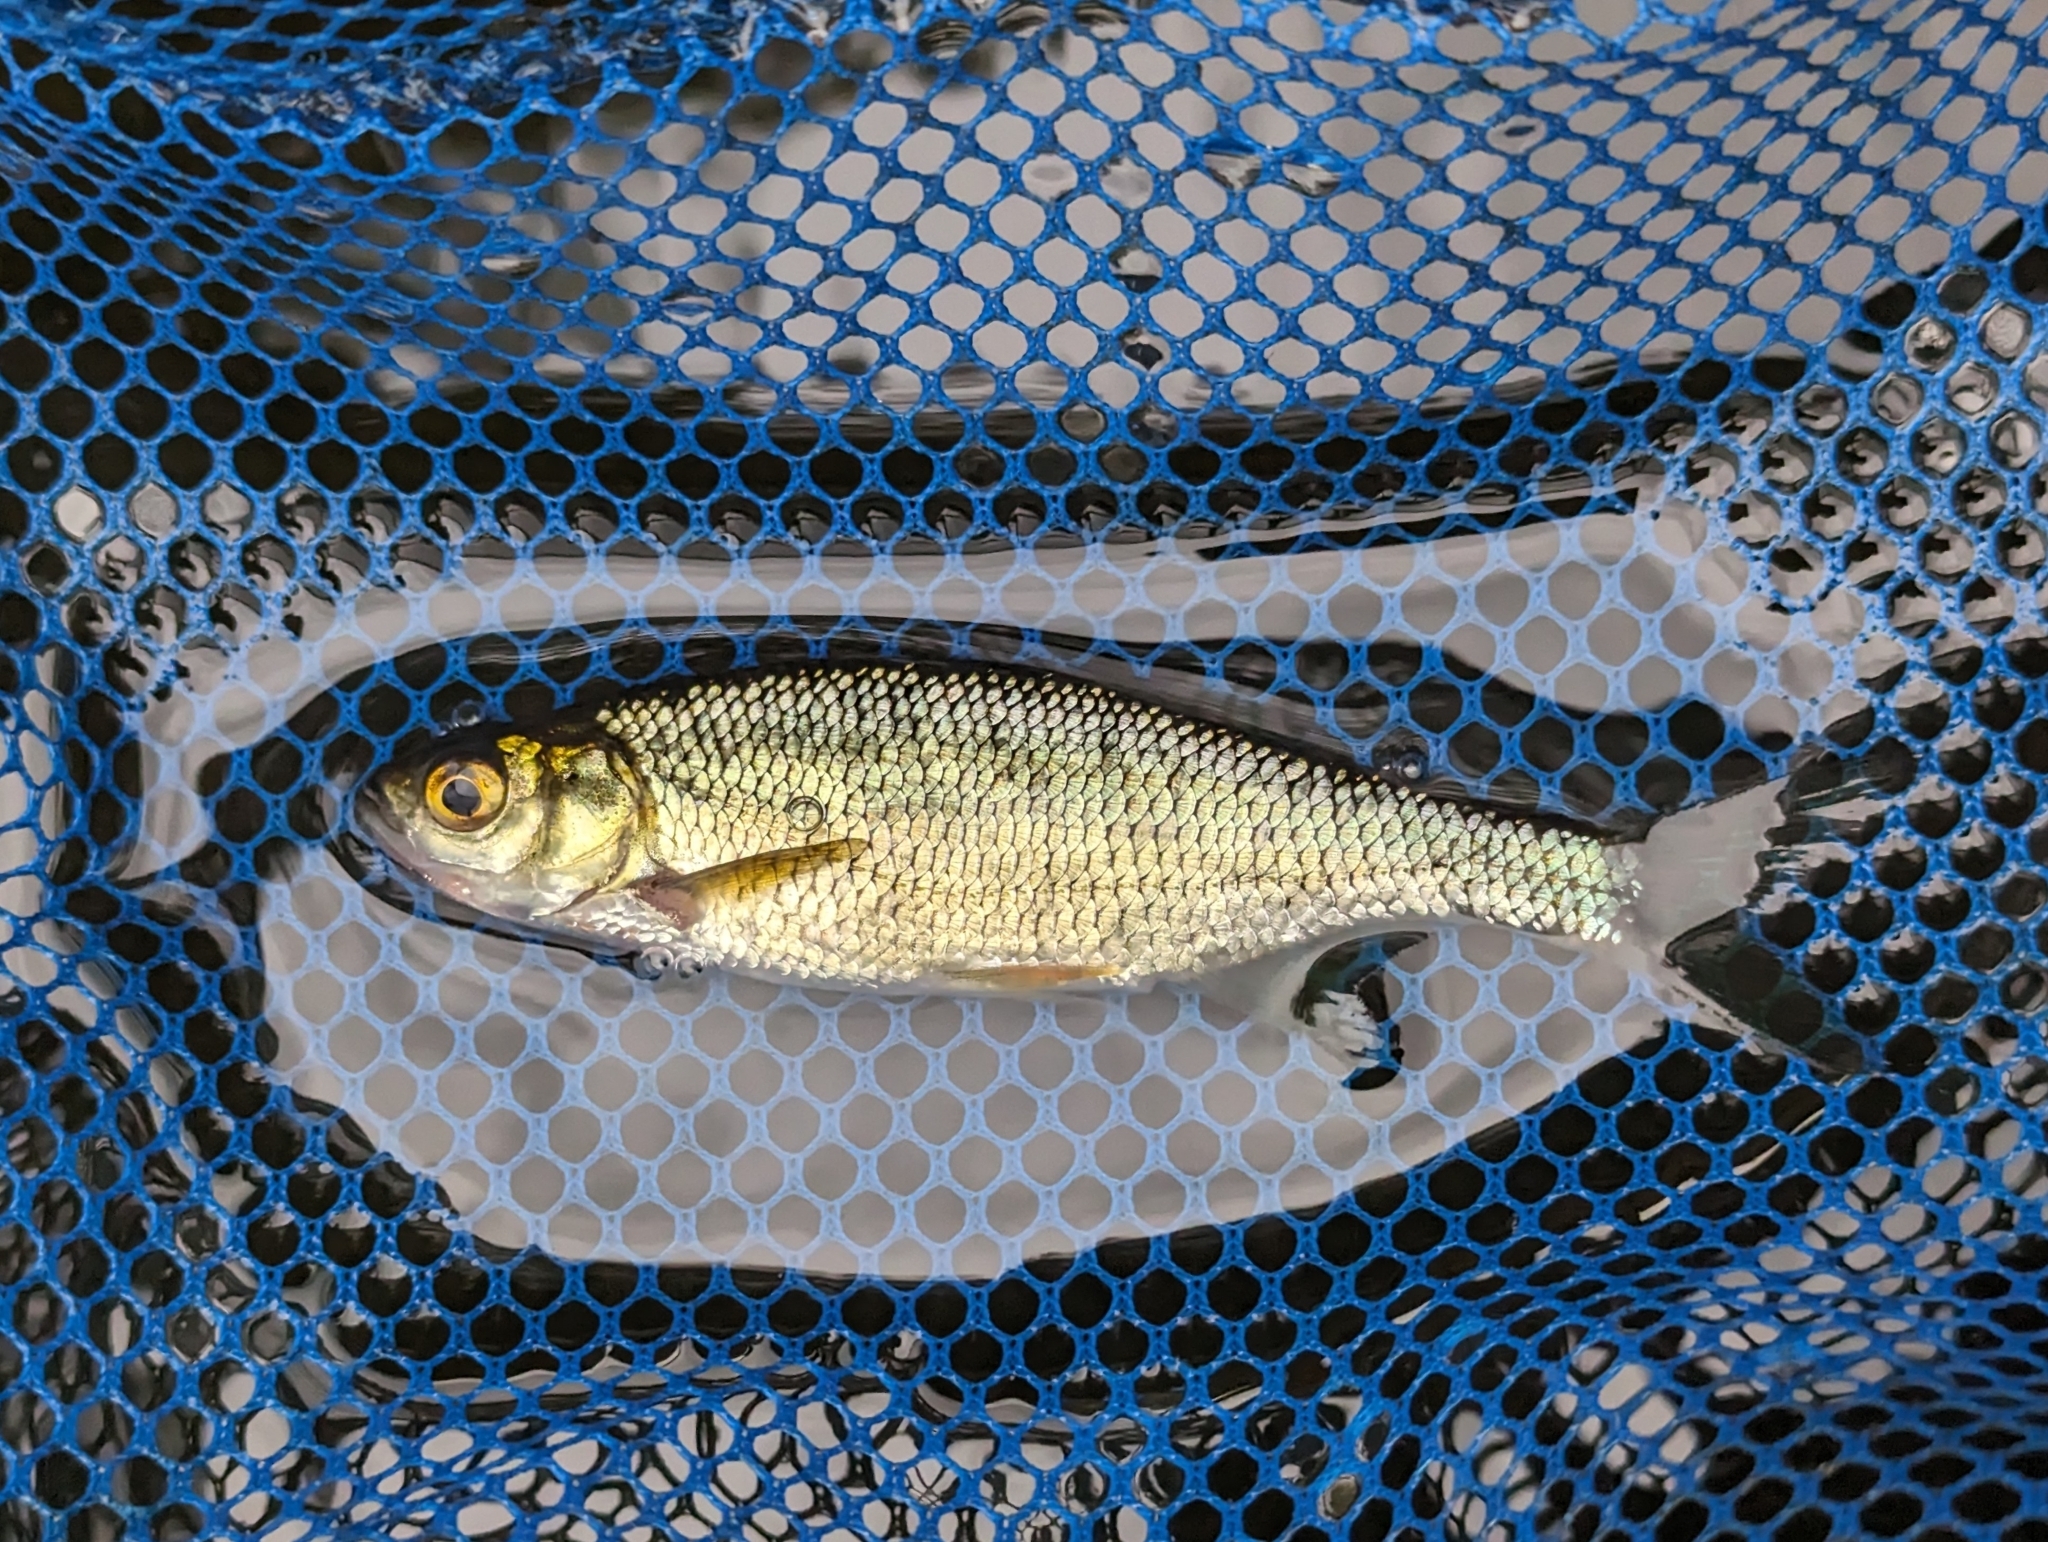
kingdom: Animalia
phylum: Chordata
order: Cypriniformes
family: Cyprinidae
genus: Notemigonus
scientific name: Notemigonus crysoleucas
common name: Golden shiner
